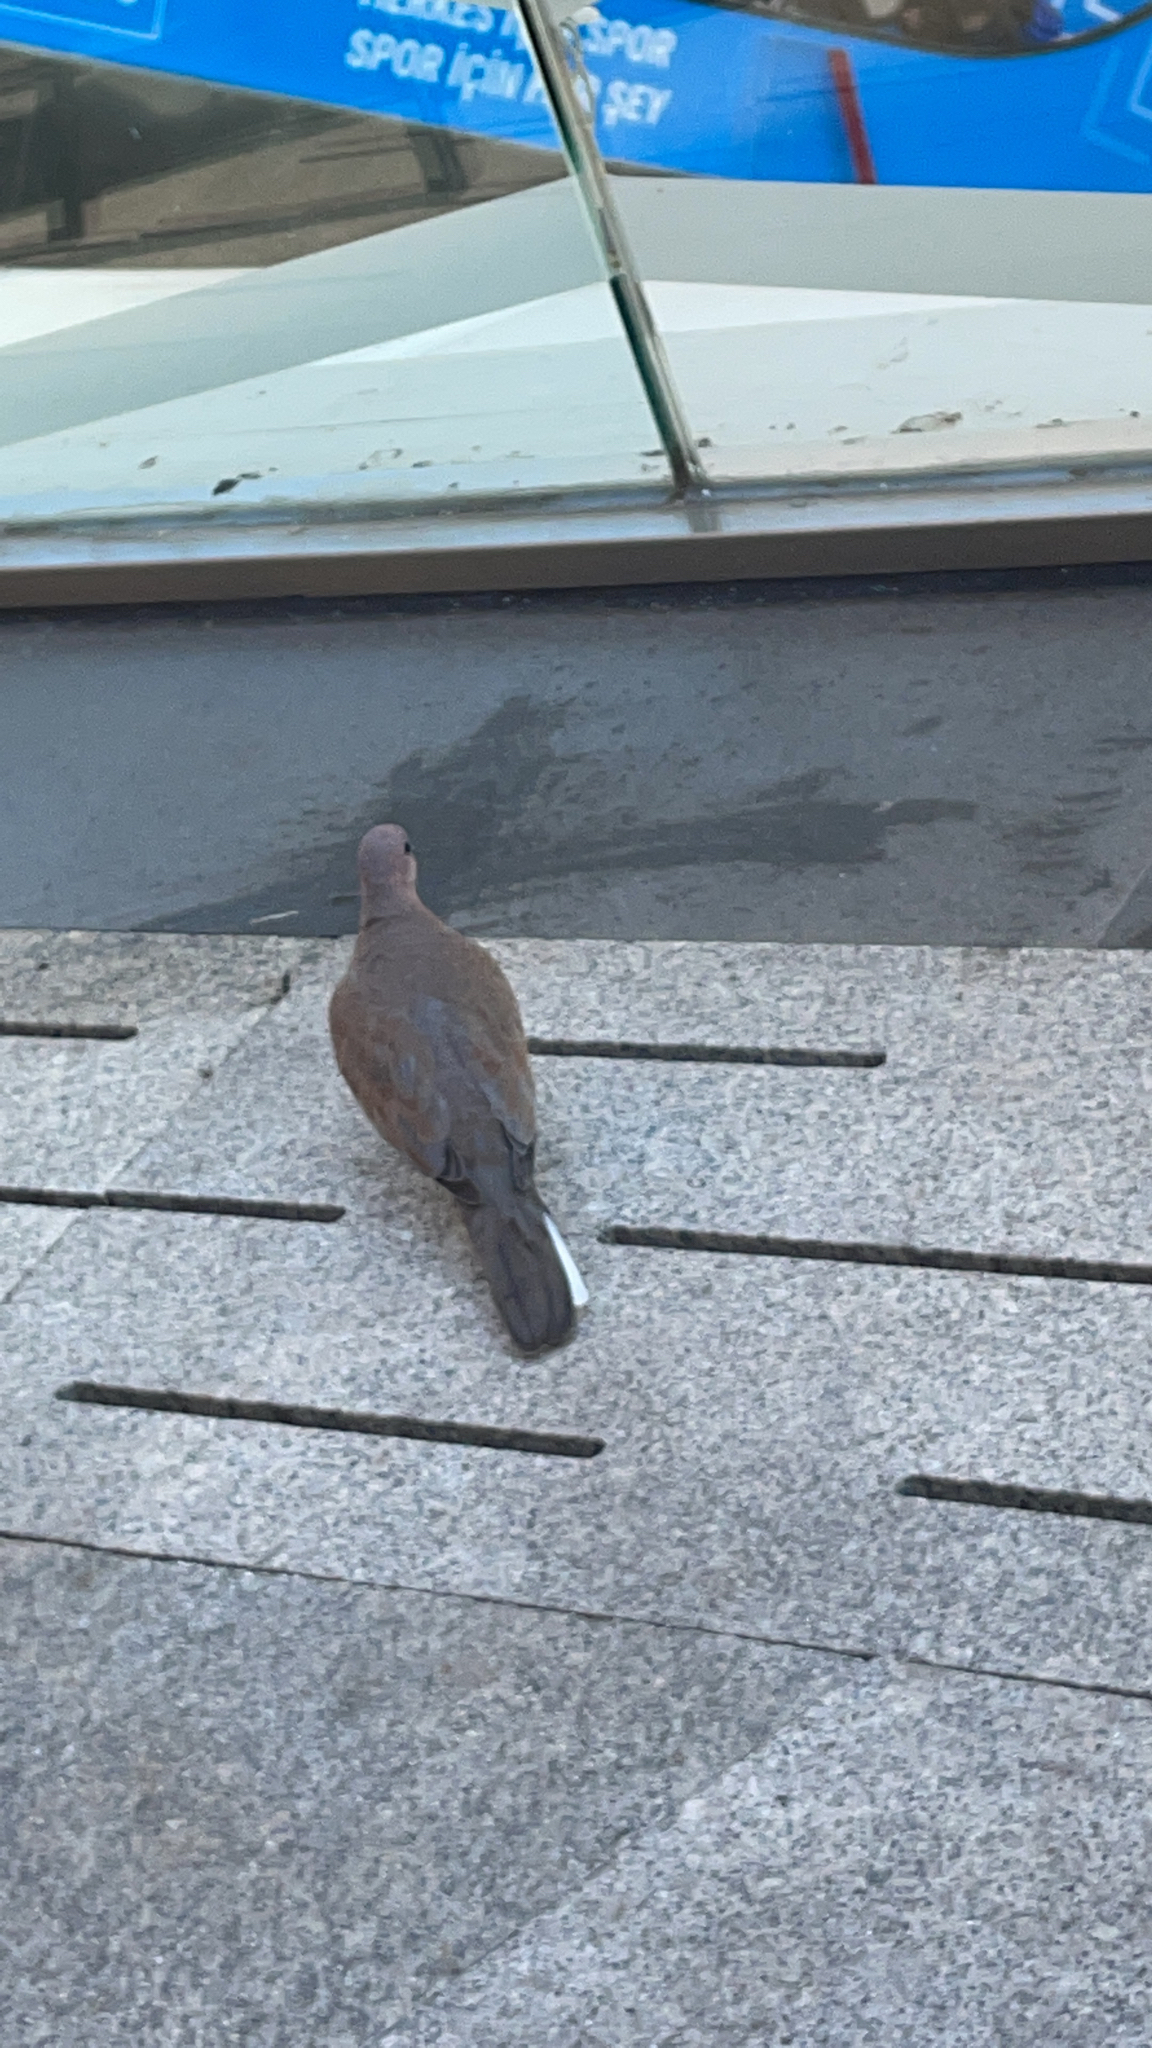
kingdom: Animalia
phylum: Chordata
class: Aves
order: Columbiformes
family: Columbidae
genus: Spilopelia
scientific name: Spilopelia senegalensis
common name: Laughing dove
